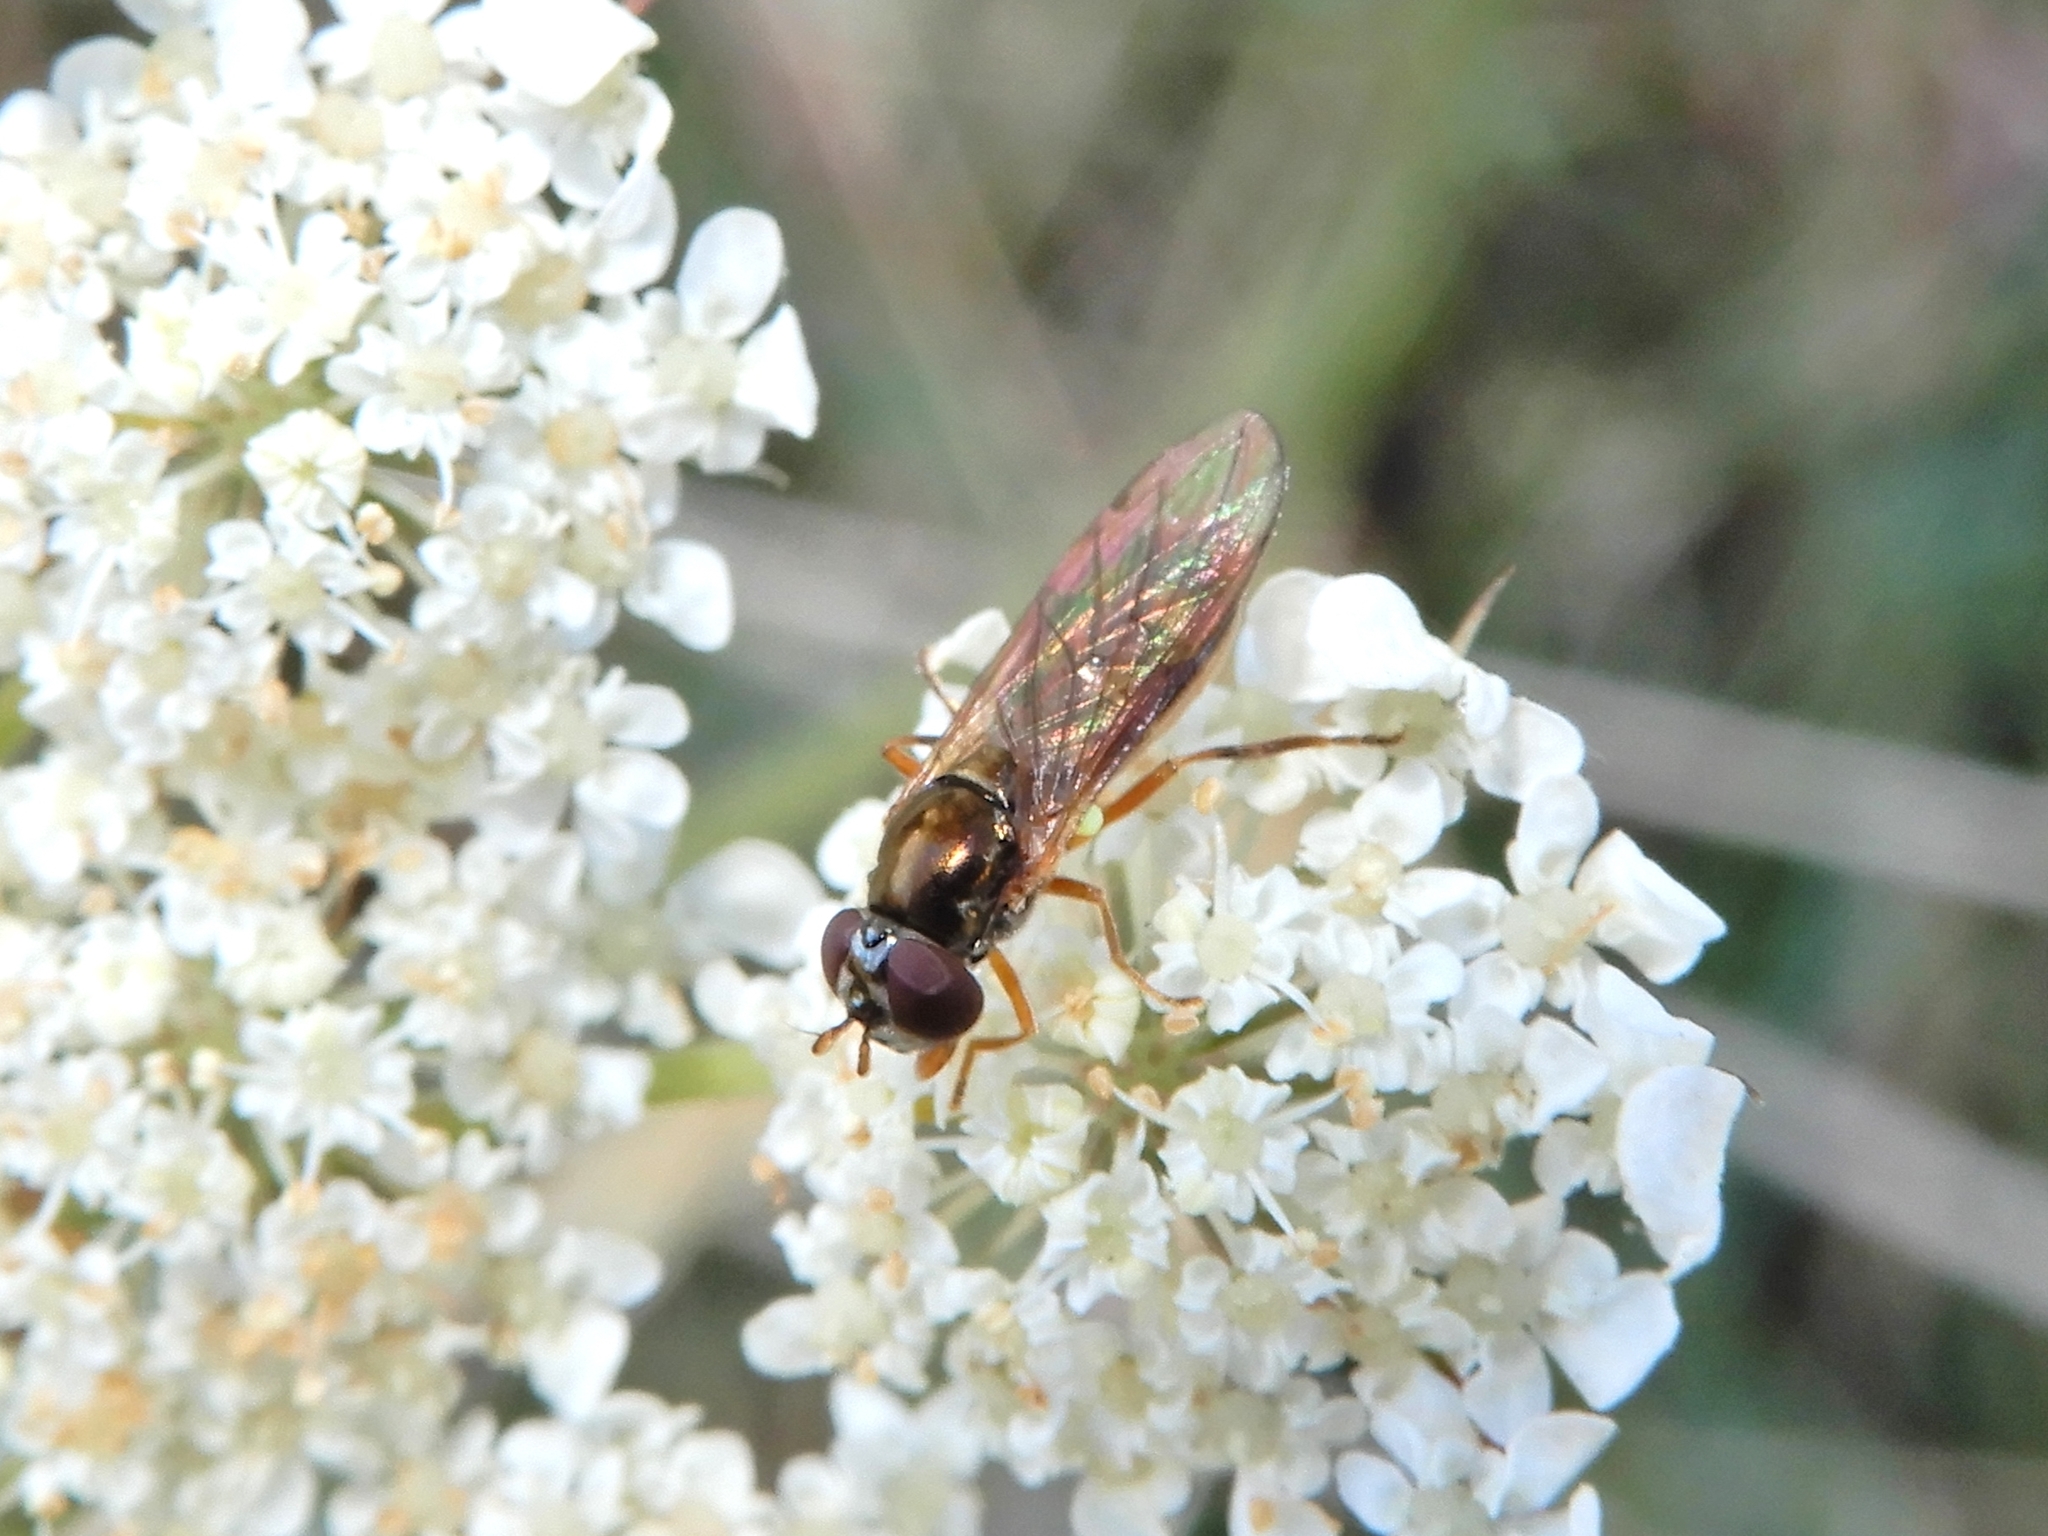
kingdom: Animalia
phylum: Arthropoda
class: Insecta
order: Diptera
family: Syrphidae
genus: Melanostoma
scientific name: Melanostoma fasciatum
